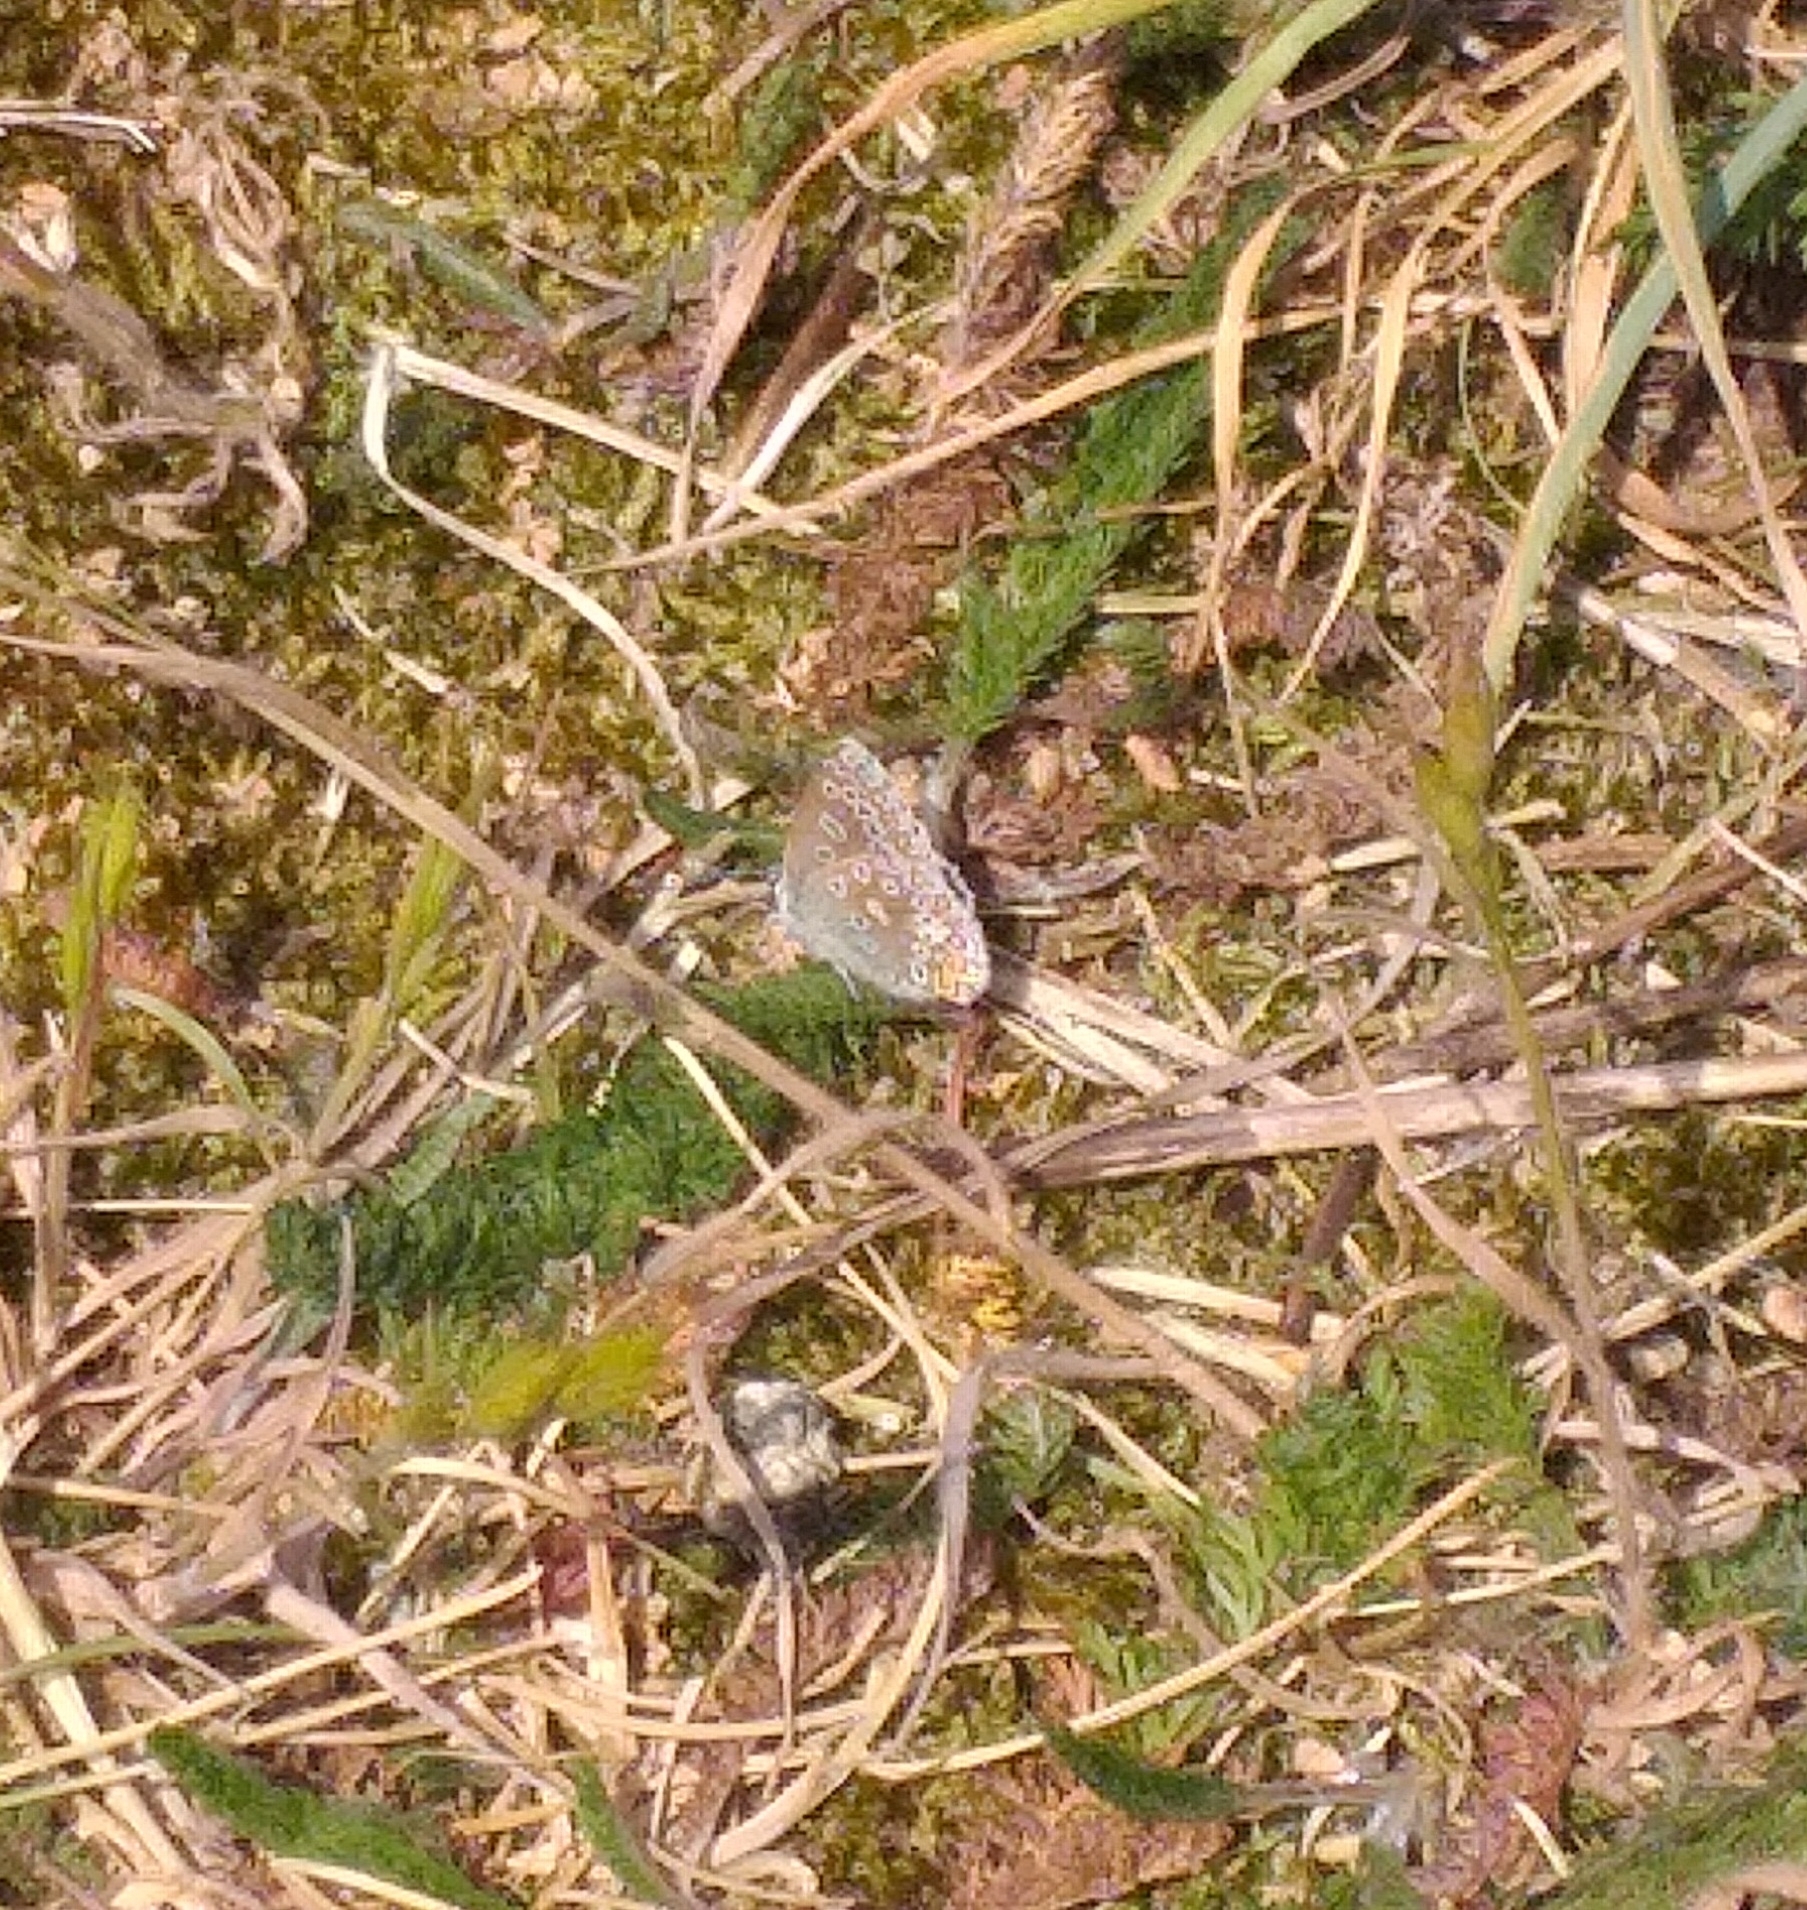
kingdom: Animalia
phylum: Arthropoda
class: Insecta
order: Lepidoptera
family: Lycaenidae
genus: Polyommatus
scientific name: Polyommatus icarus
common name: Common blue
